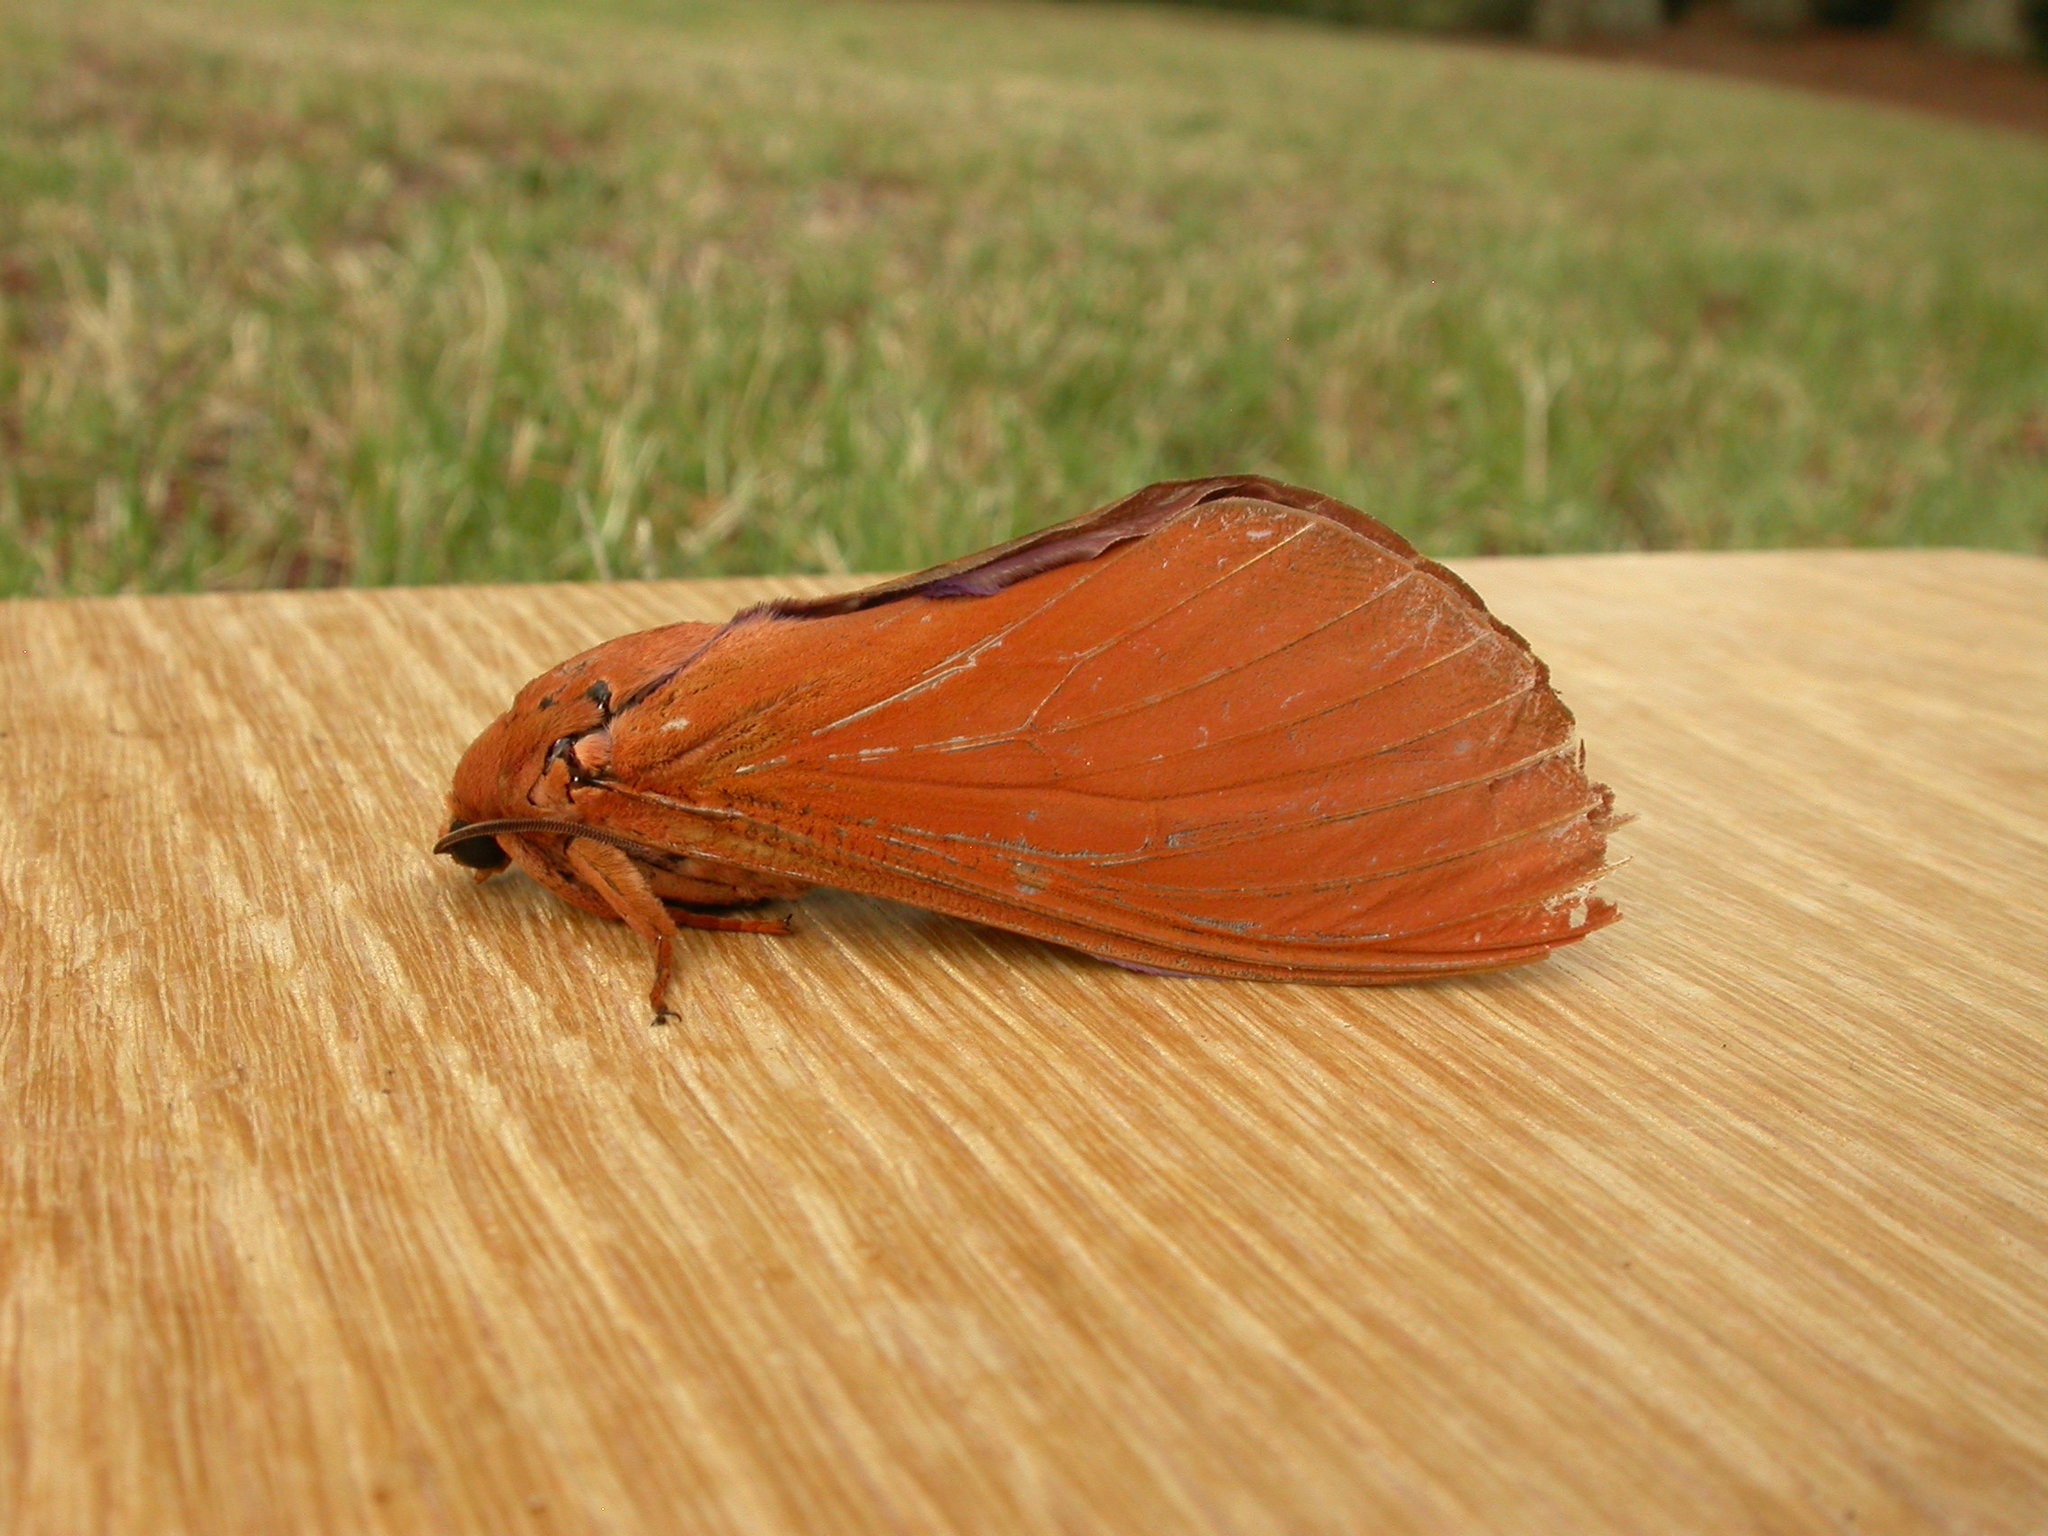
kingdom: Animalia
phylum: Arthropoda
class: Insecta
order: Lepidoptera
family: Hepialidae
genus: Abantiades
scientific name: Abantiades hyalinatus
